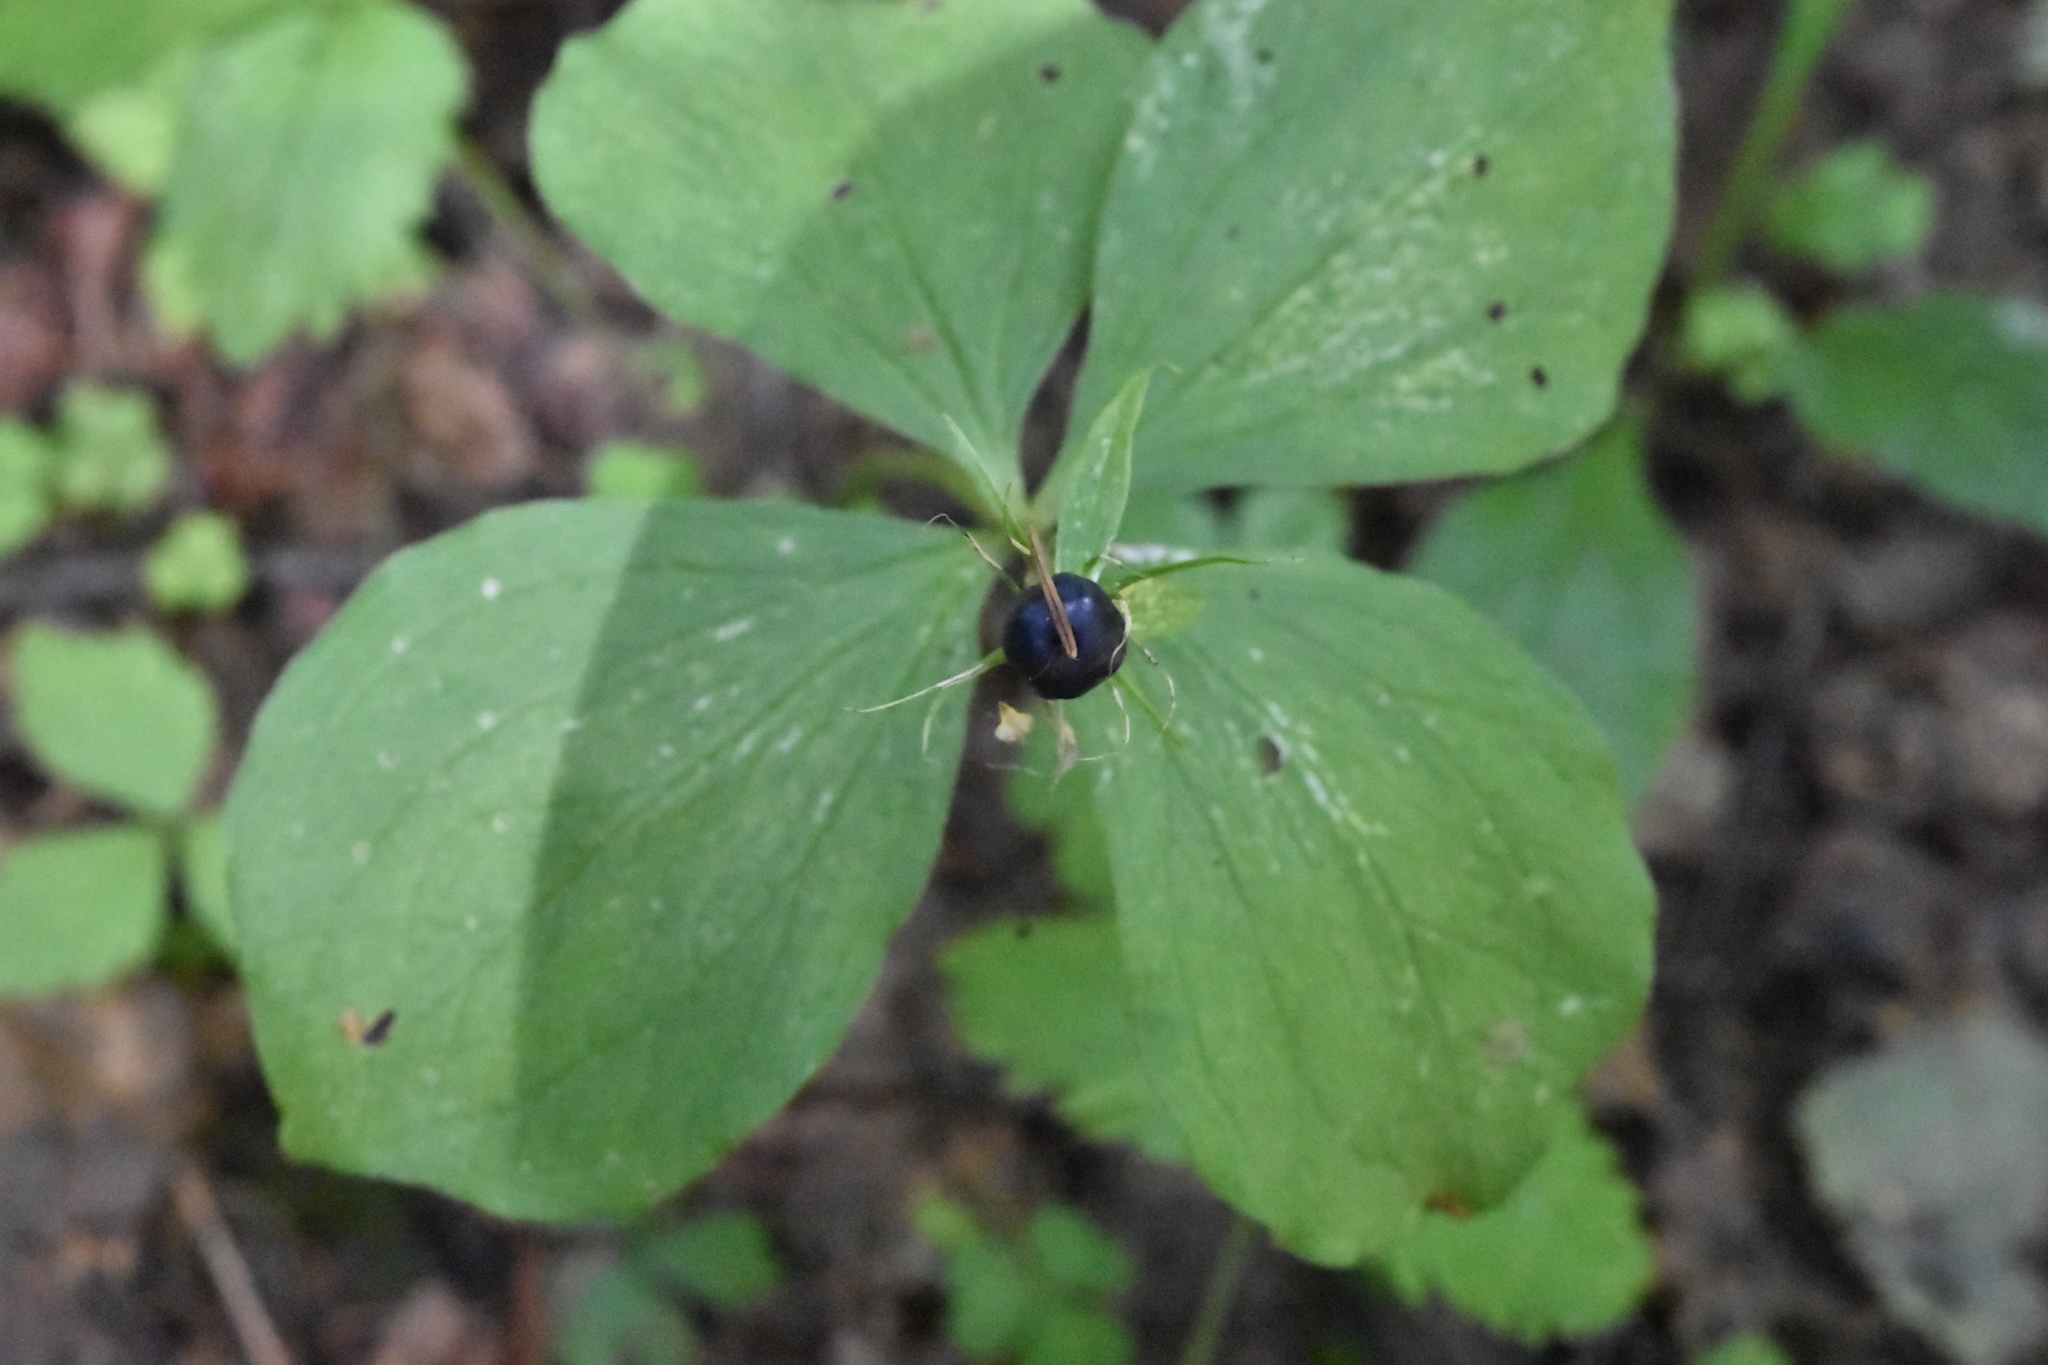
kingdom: Plantae
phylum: Tracheophyta
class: Liliopsida
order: Liliales
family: Melanthiaceae
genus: Paris
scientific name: Paris quadrifolia
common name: Herb-paris
